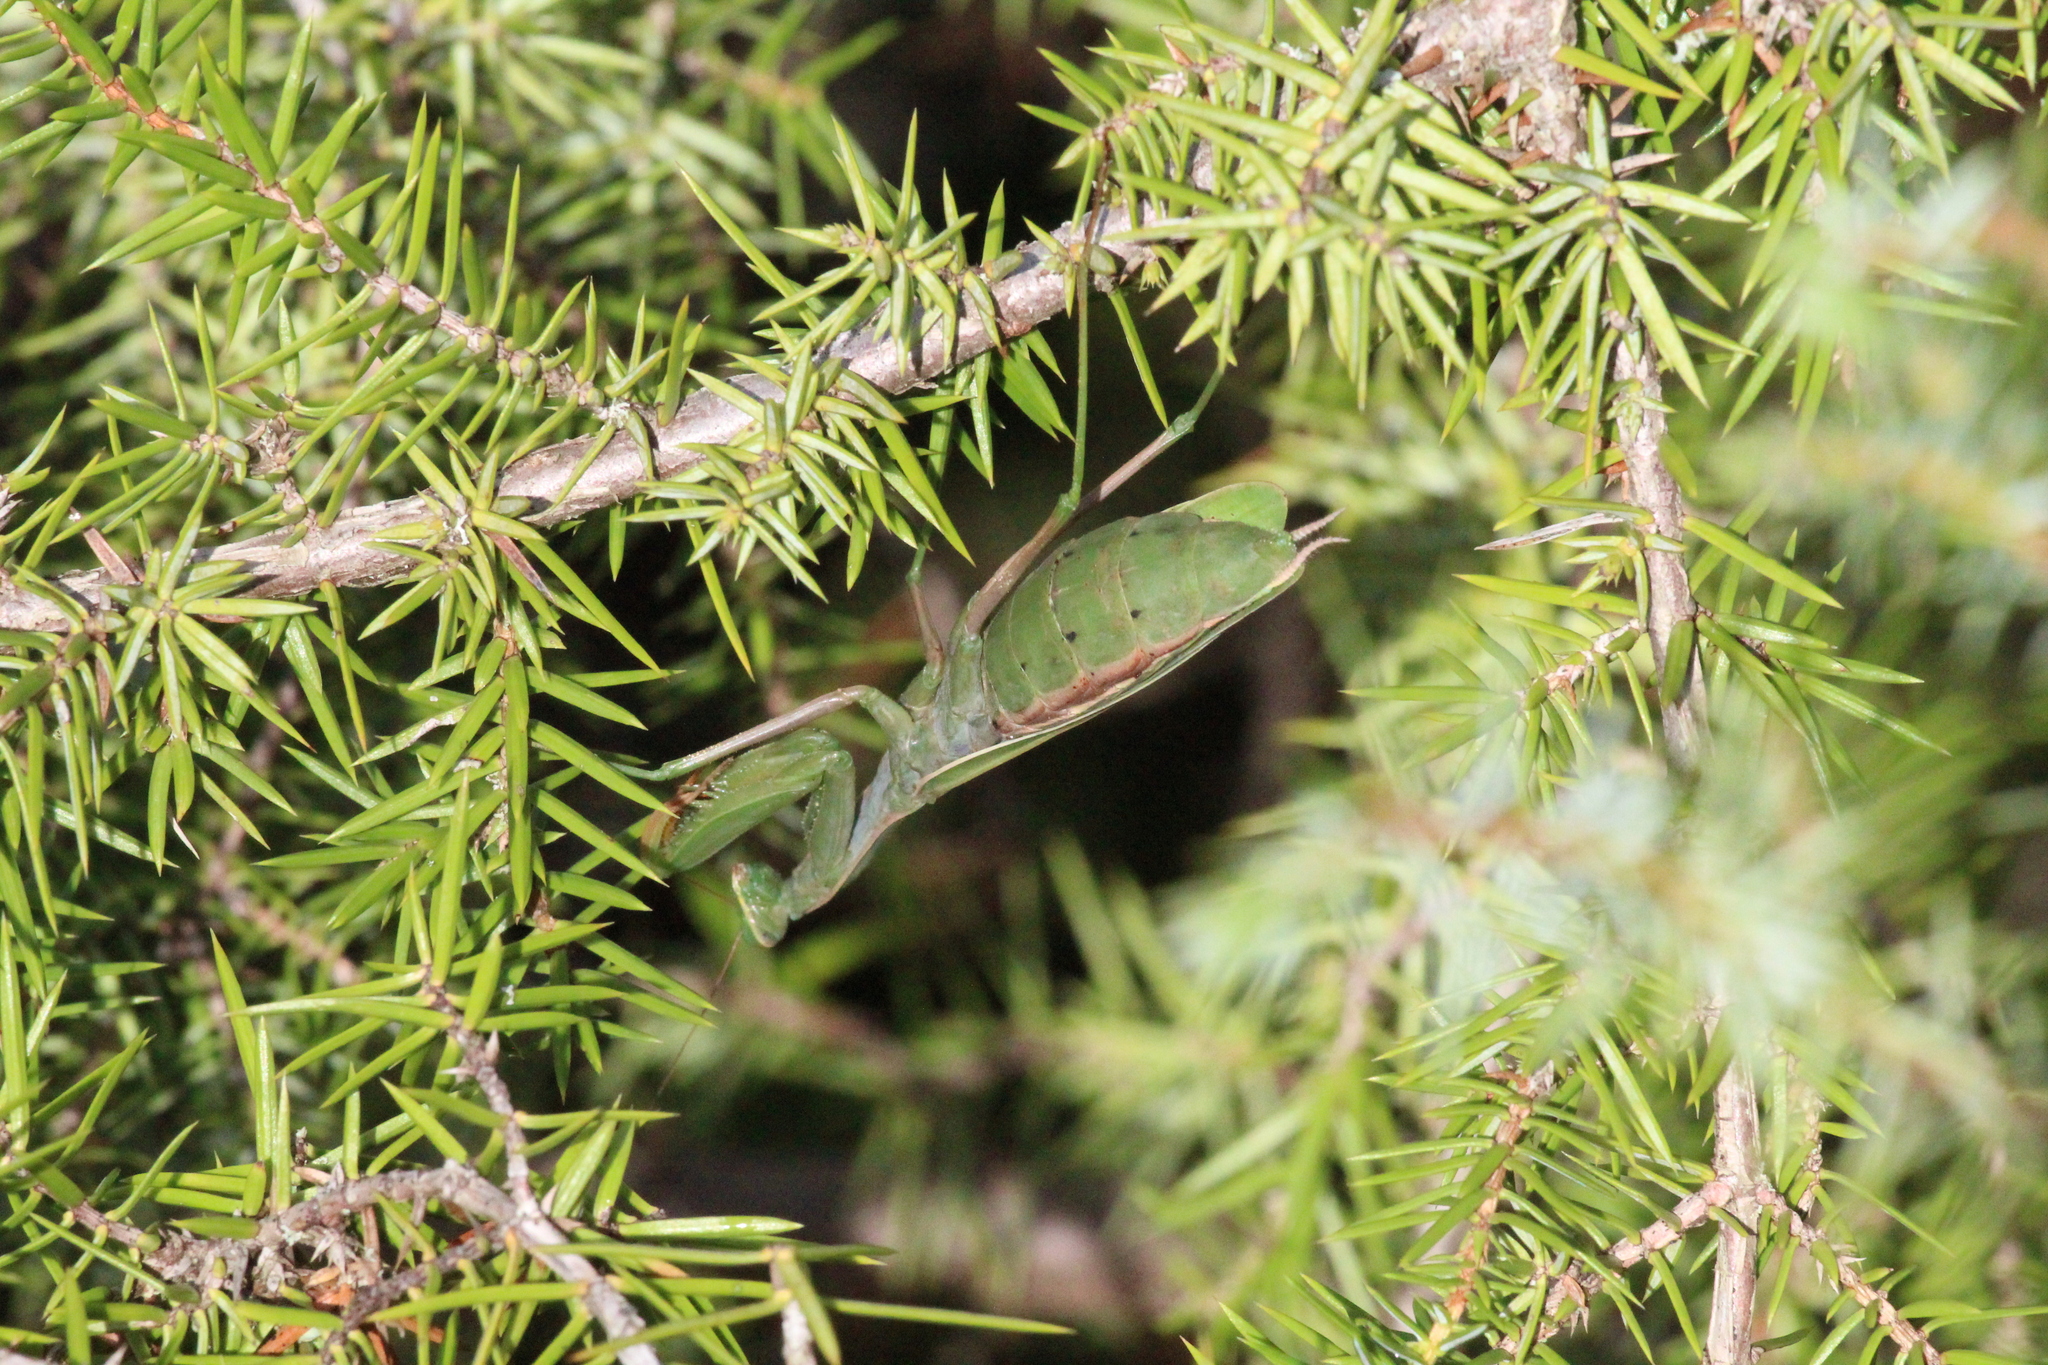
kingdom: Animalia
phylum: Arthropoda
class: Insecta
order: Mantodea
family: Mantidae
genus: Mantis
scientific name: Mantis religiosa
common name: Praying mantis
